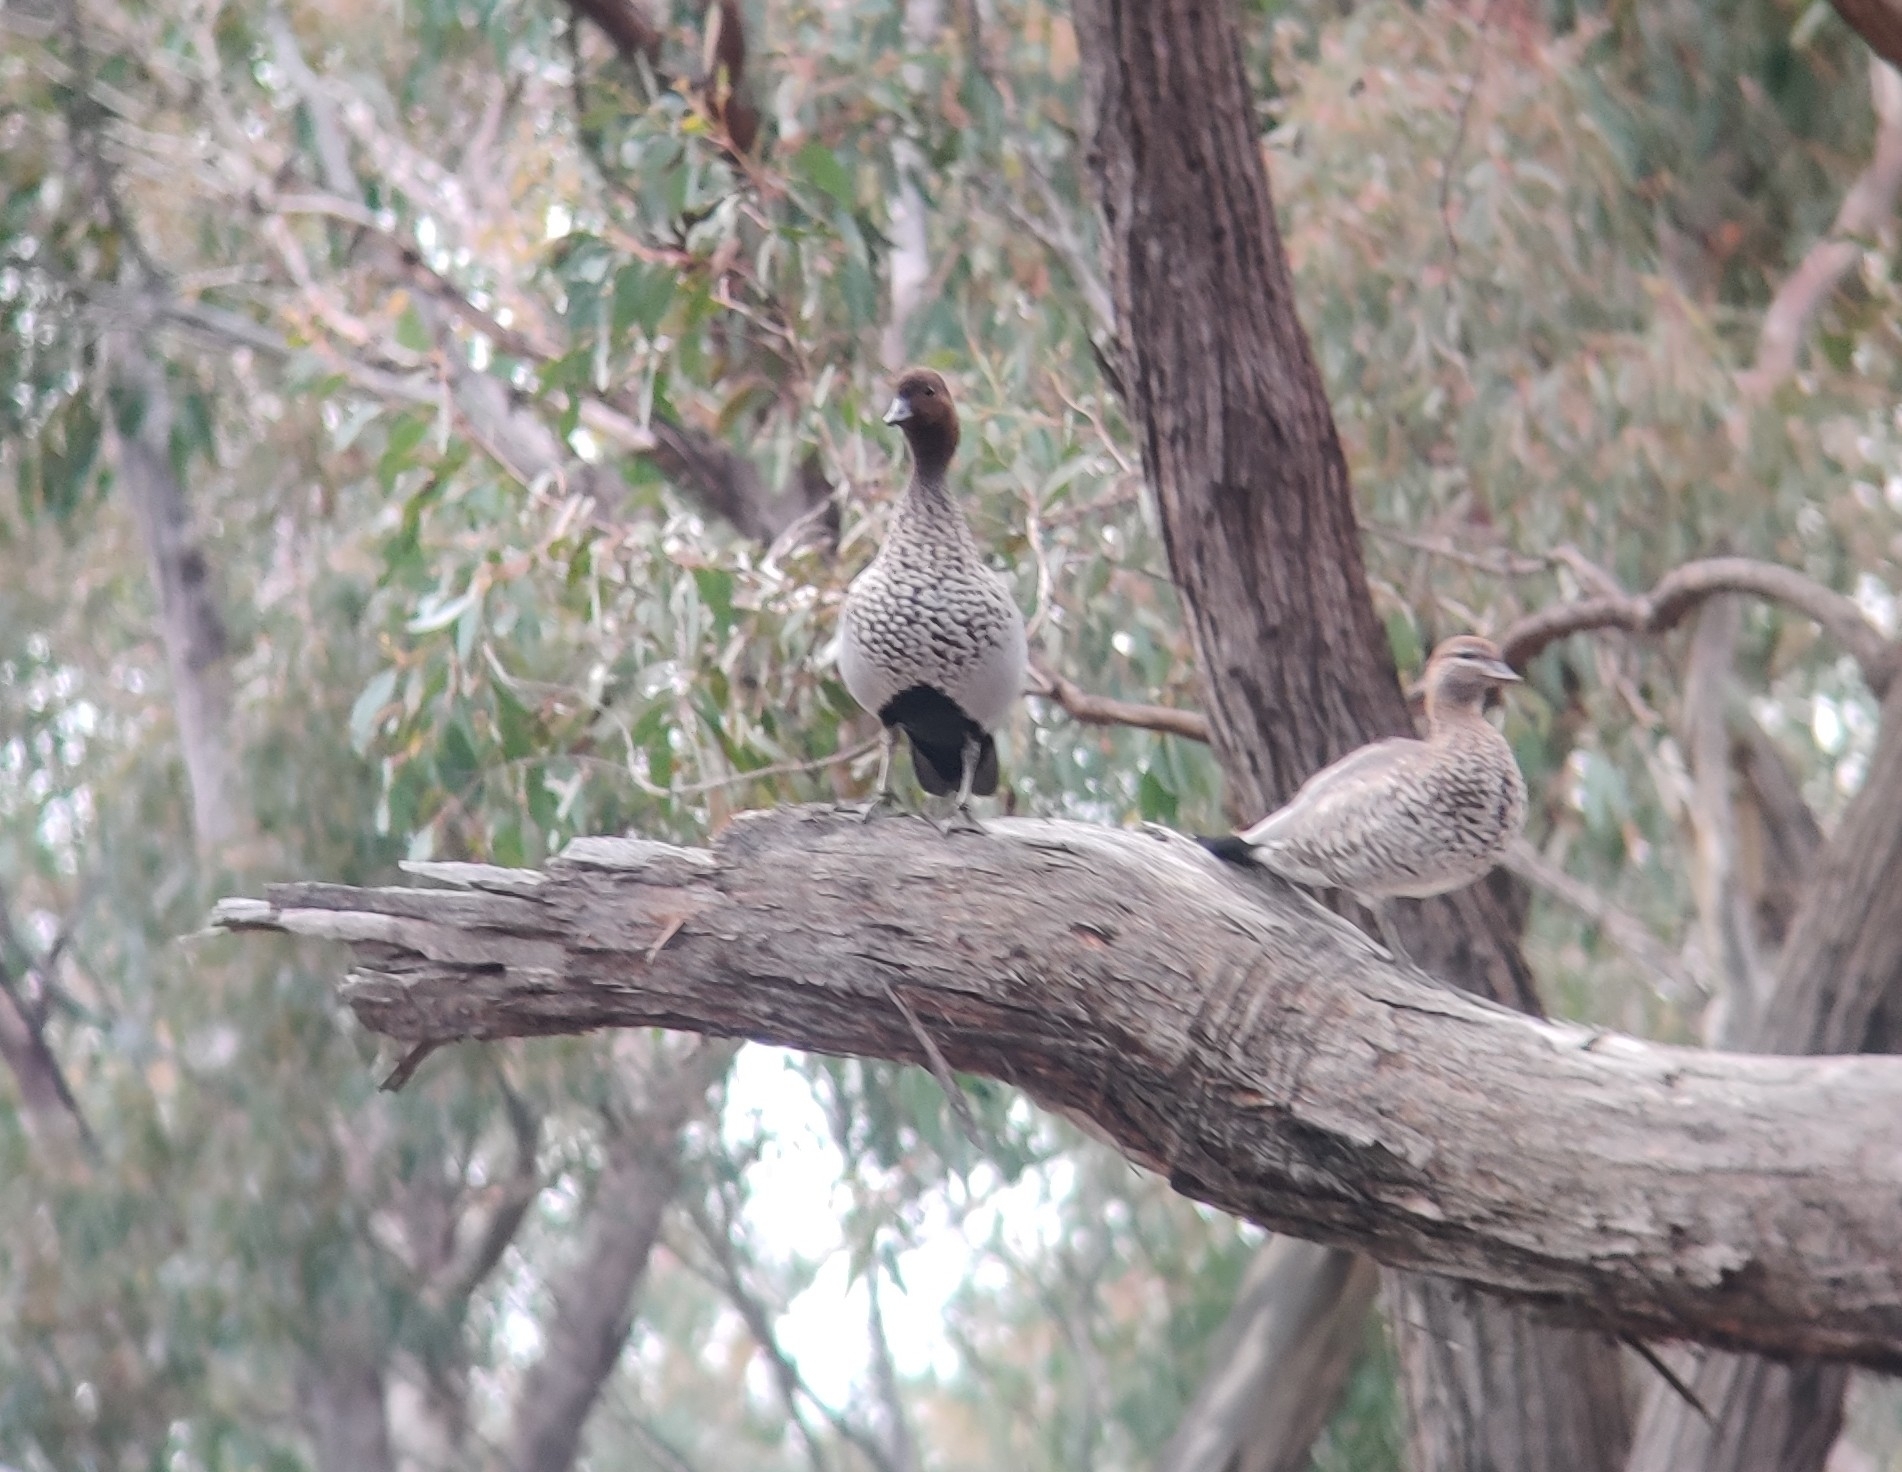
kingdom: Animalia
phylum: Chordata
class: Aves
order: Anseriformes
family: Anatidae
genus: Chenonetta
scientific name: Chenonetta jubata
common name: Maned duck
